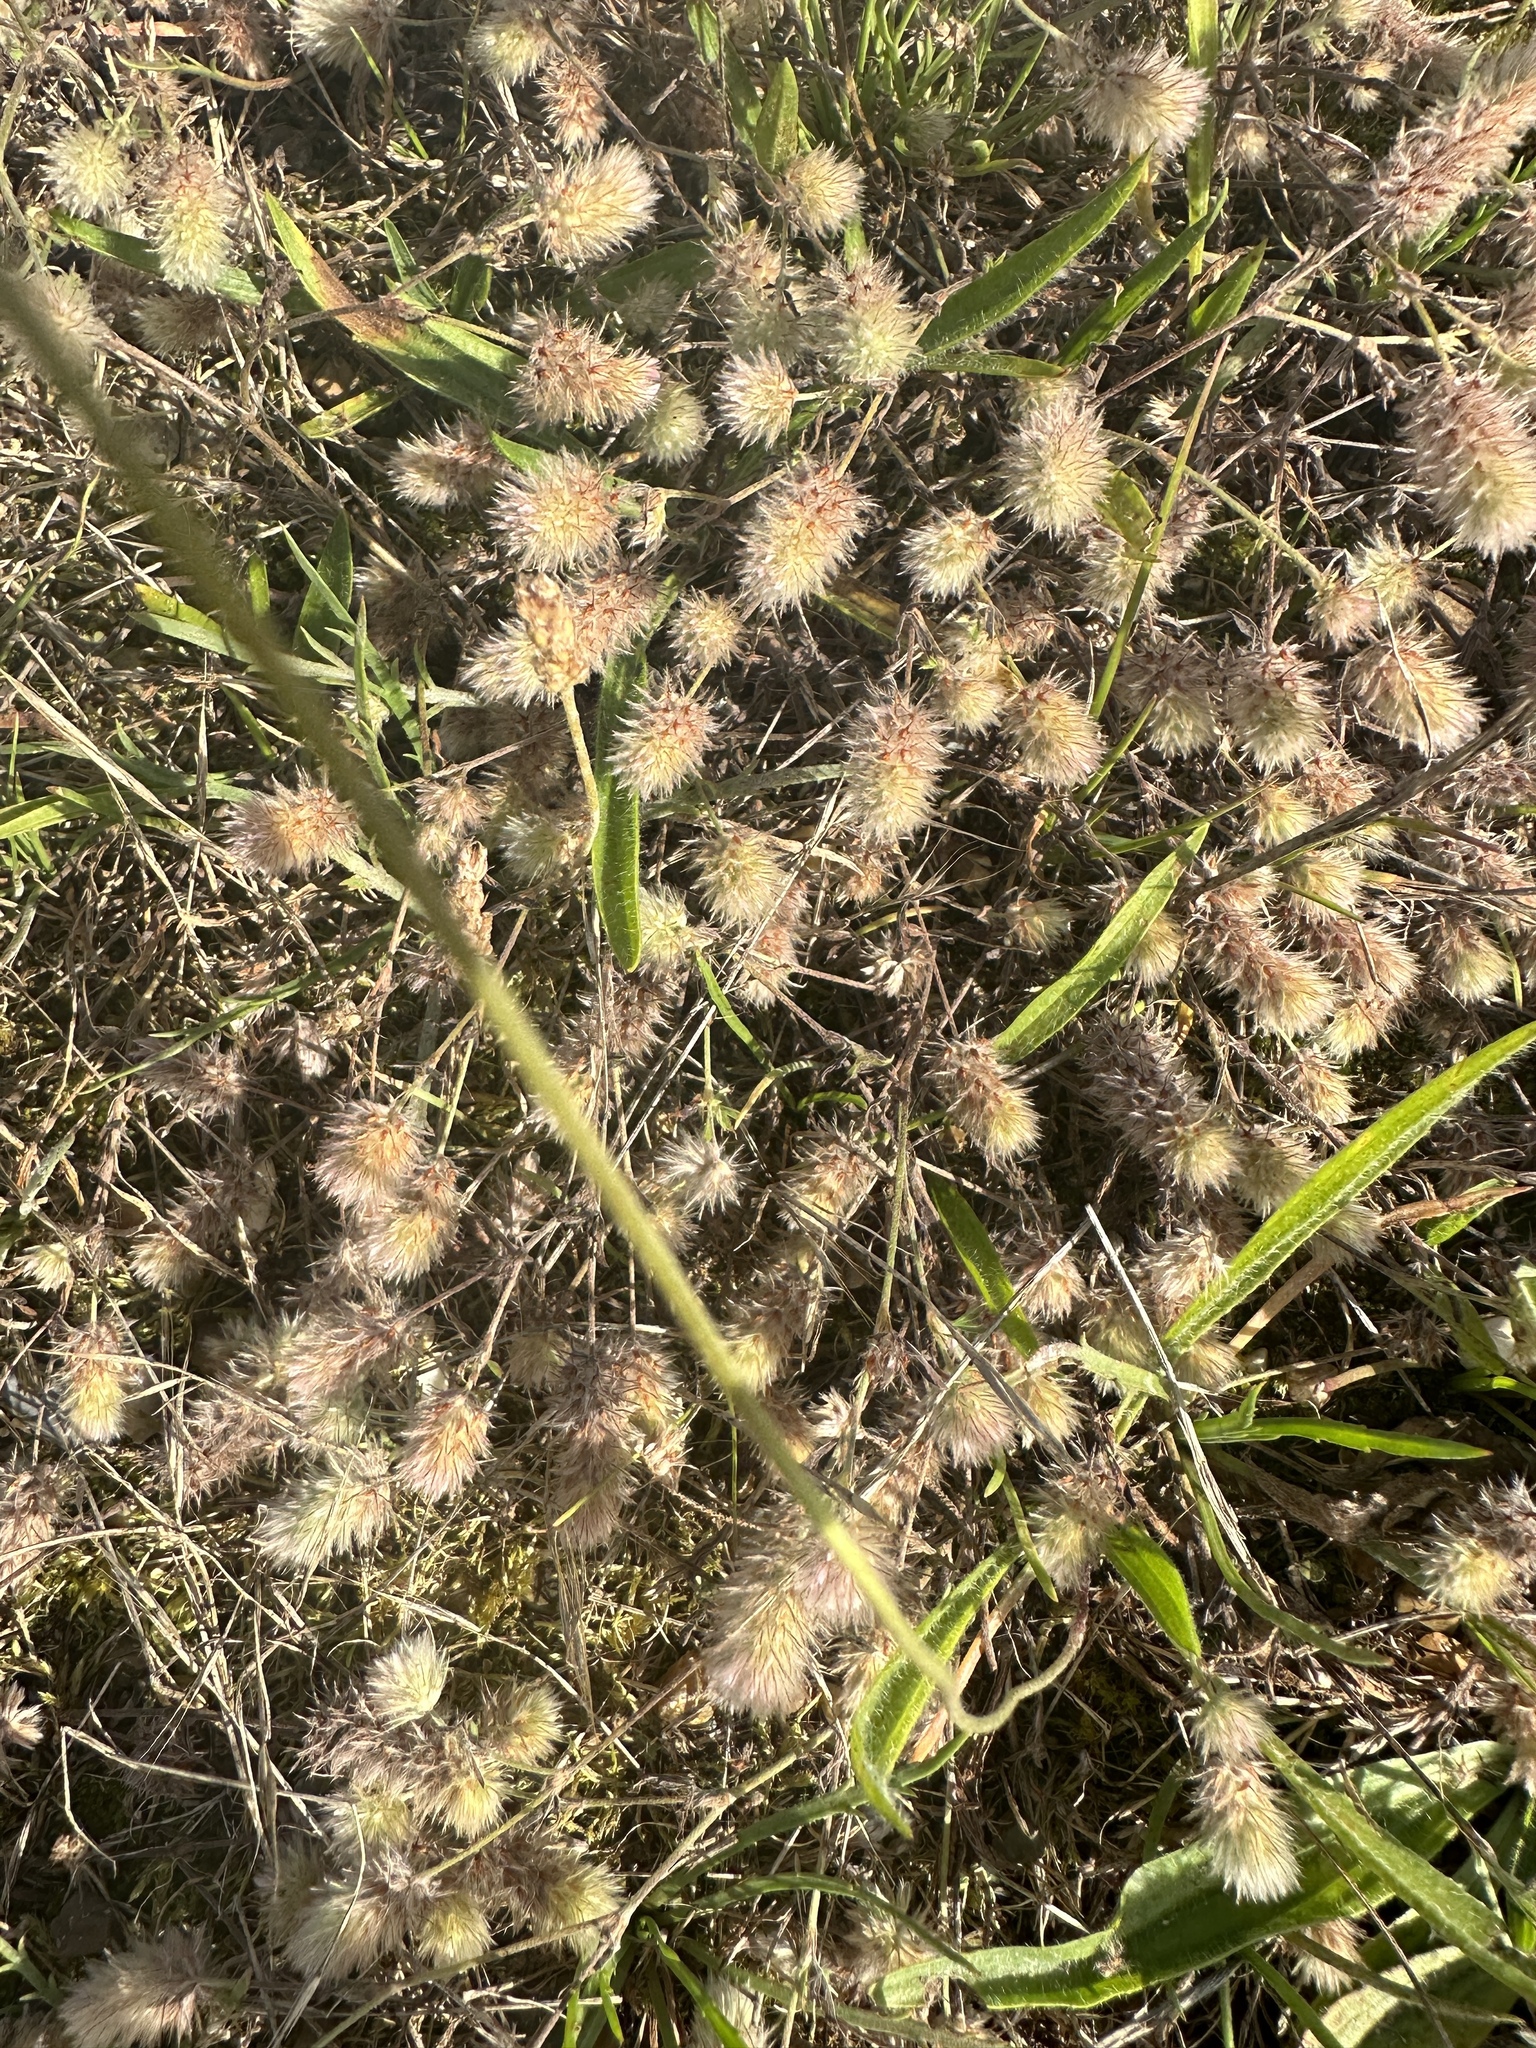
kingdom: Plantae
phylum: Tracheophyta
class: Magnoliopsida
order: Fabales
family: Fabaceae
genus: Trifolium
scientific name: Trifolium arvense
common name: Hare's-foot clover
